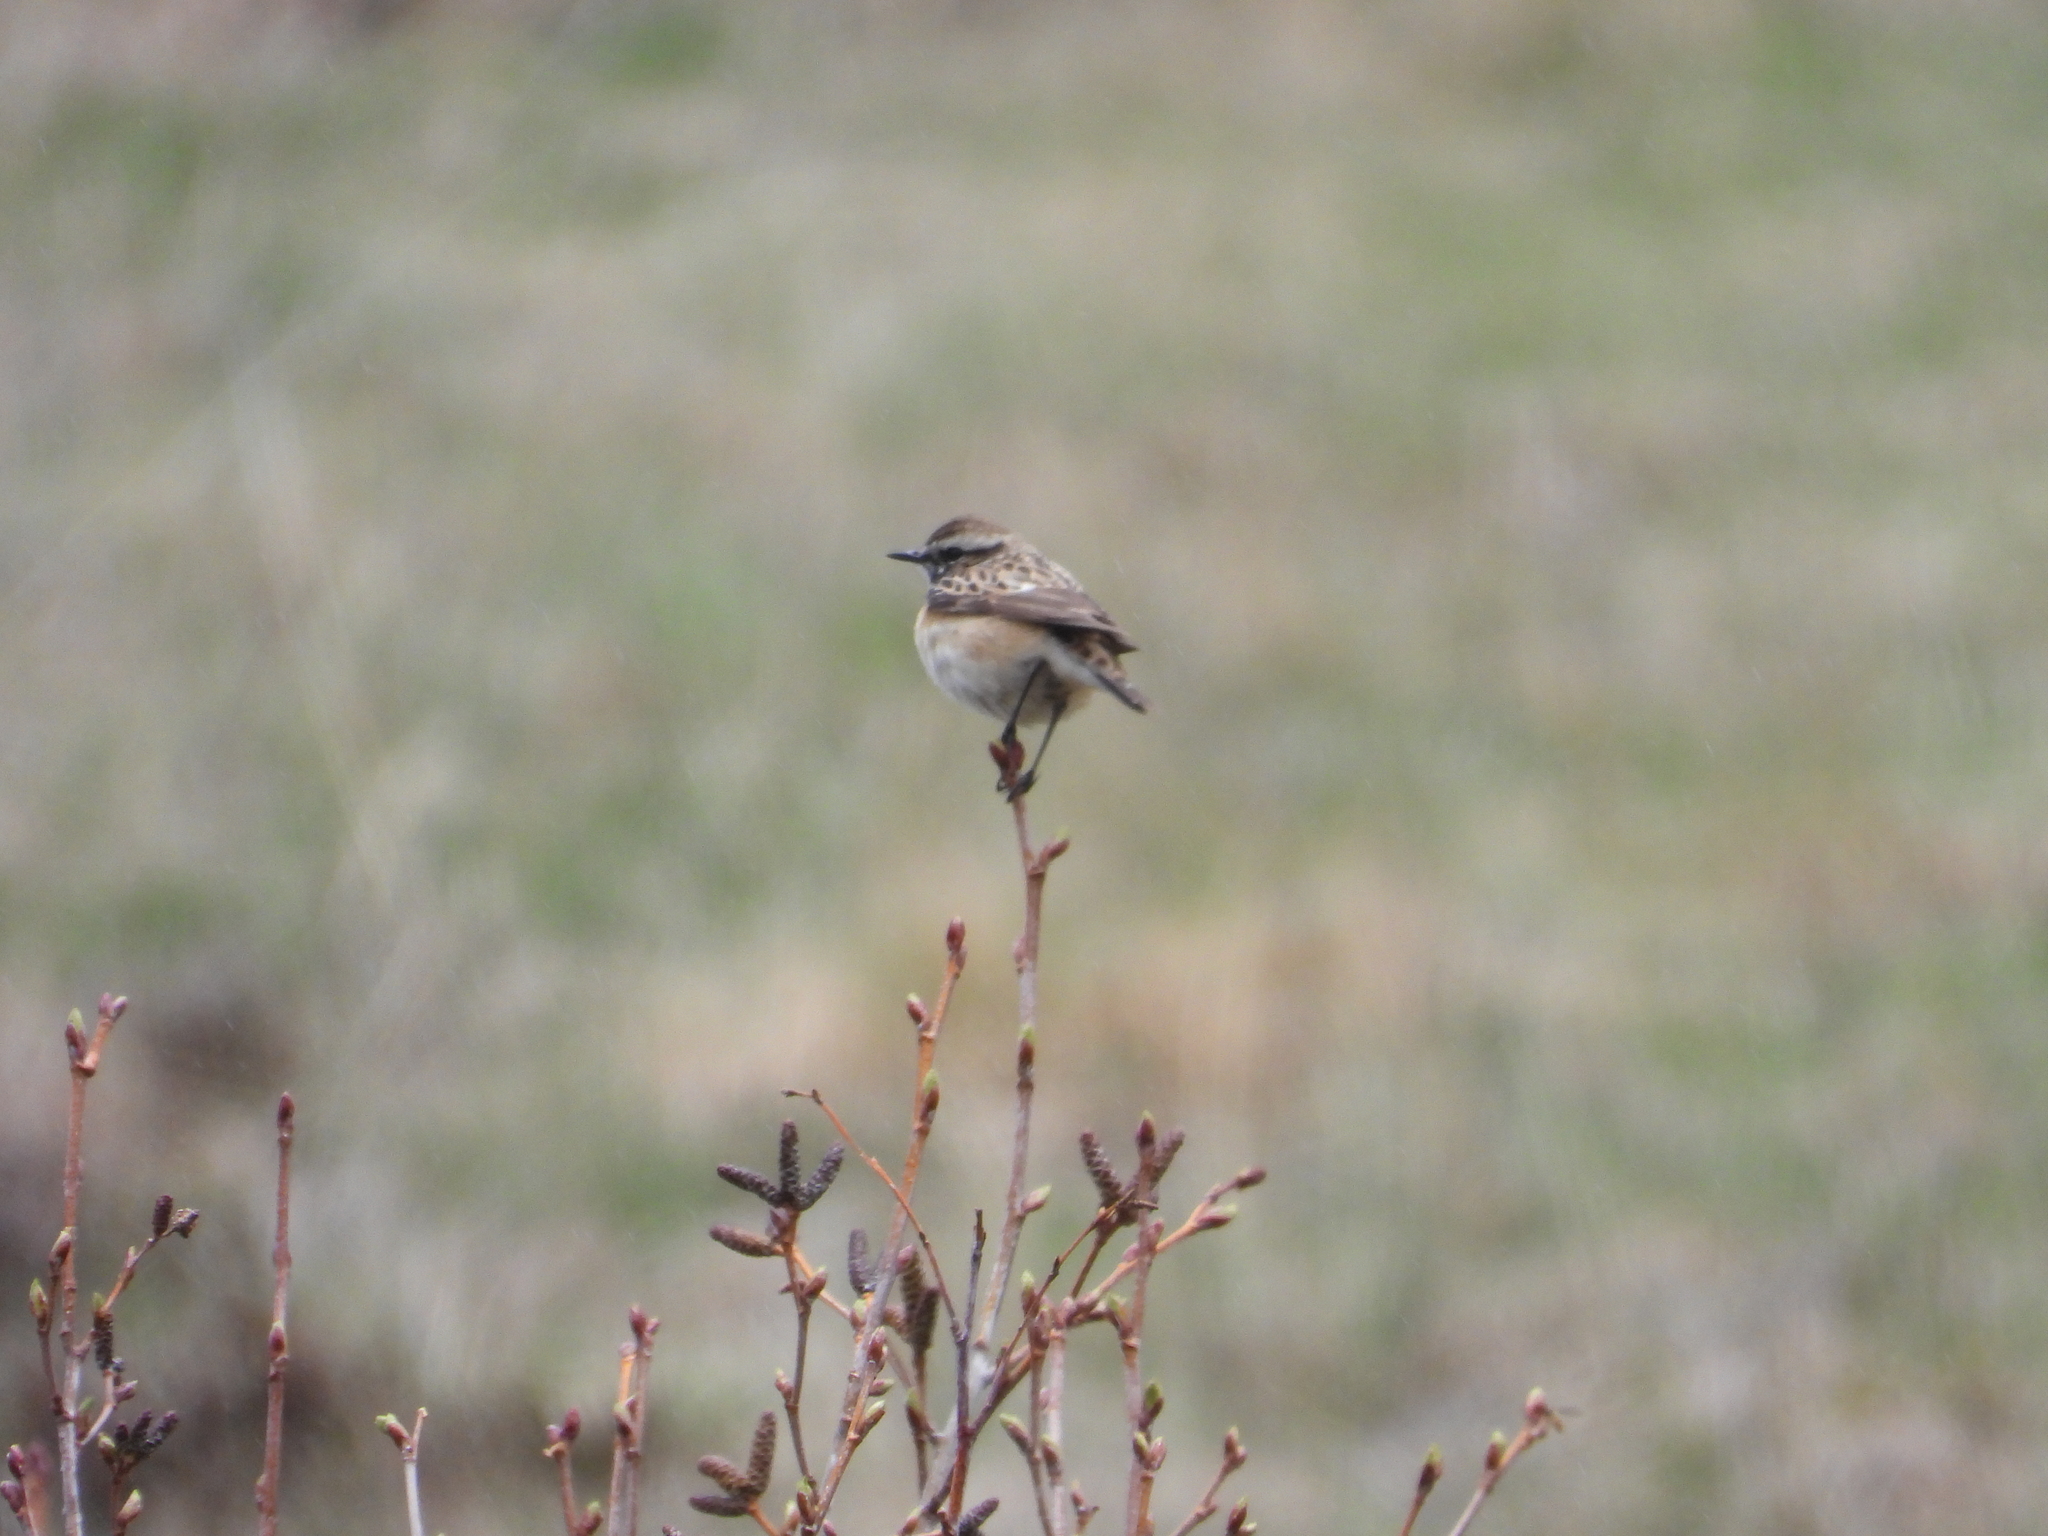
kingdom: Animalia
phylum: Chordata
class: Aves
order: Passeriformes
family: Muscicapidae
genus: Saxicola
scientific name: Saxicola rubetra
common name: Whinchat
